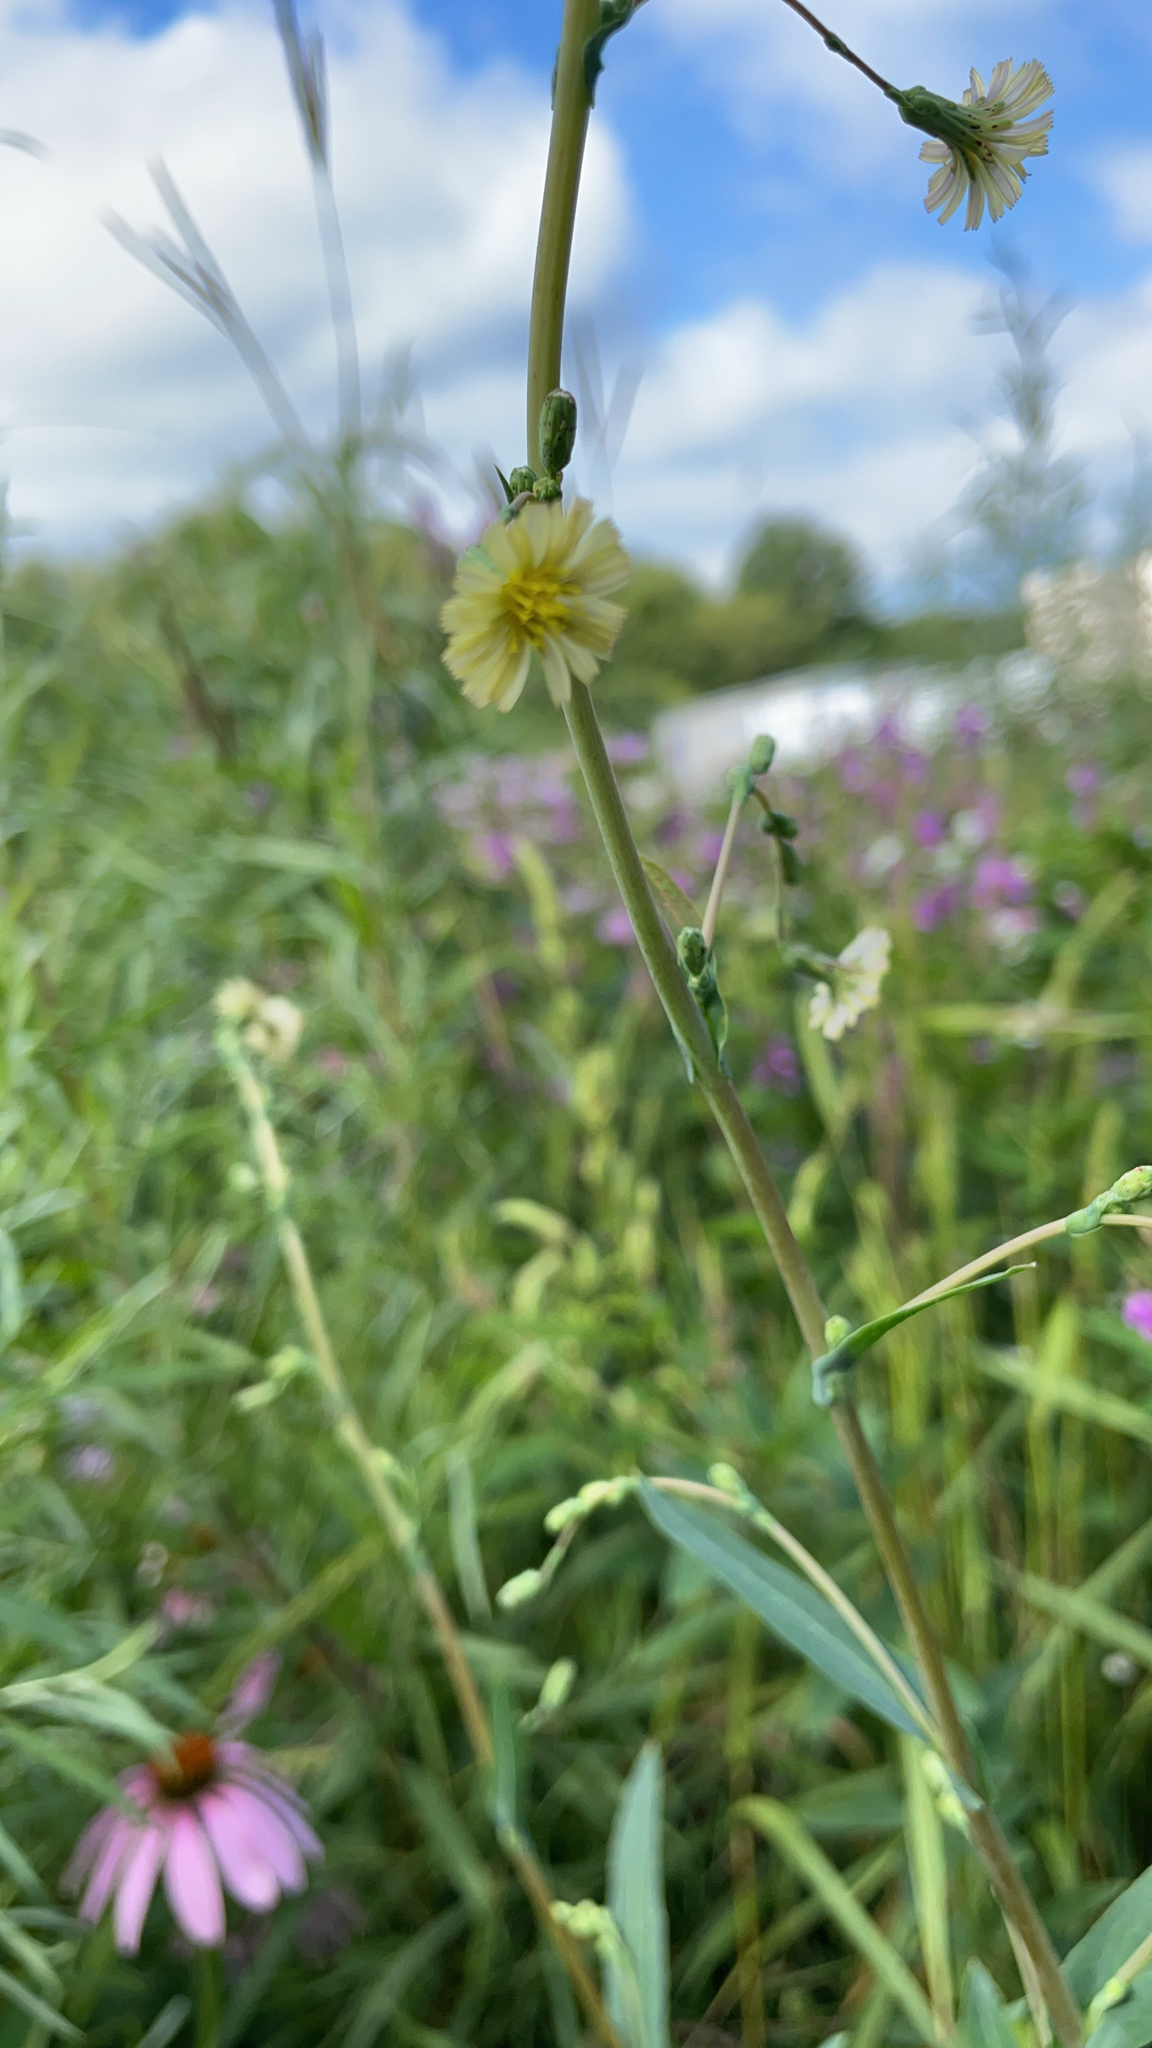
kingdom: Plantae
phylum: Tracheophyta
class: Magnoliopsida
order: Asterales
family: Asteraceae
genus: Lactuca
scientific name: Lactuca serriola
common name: Prickly lettuce
